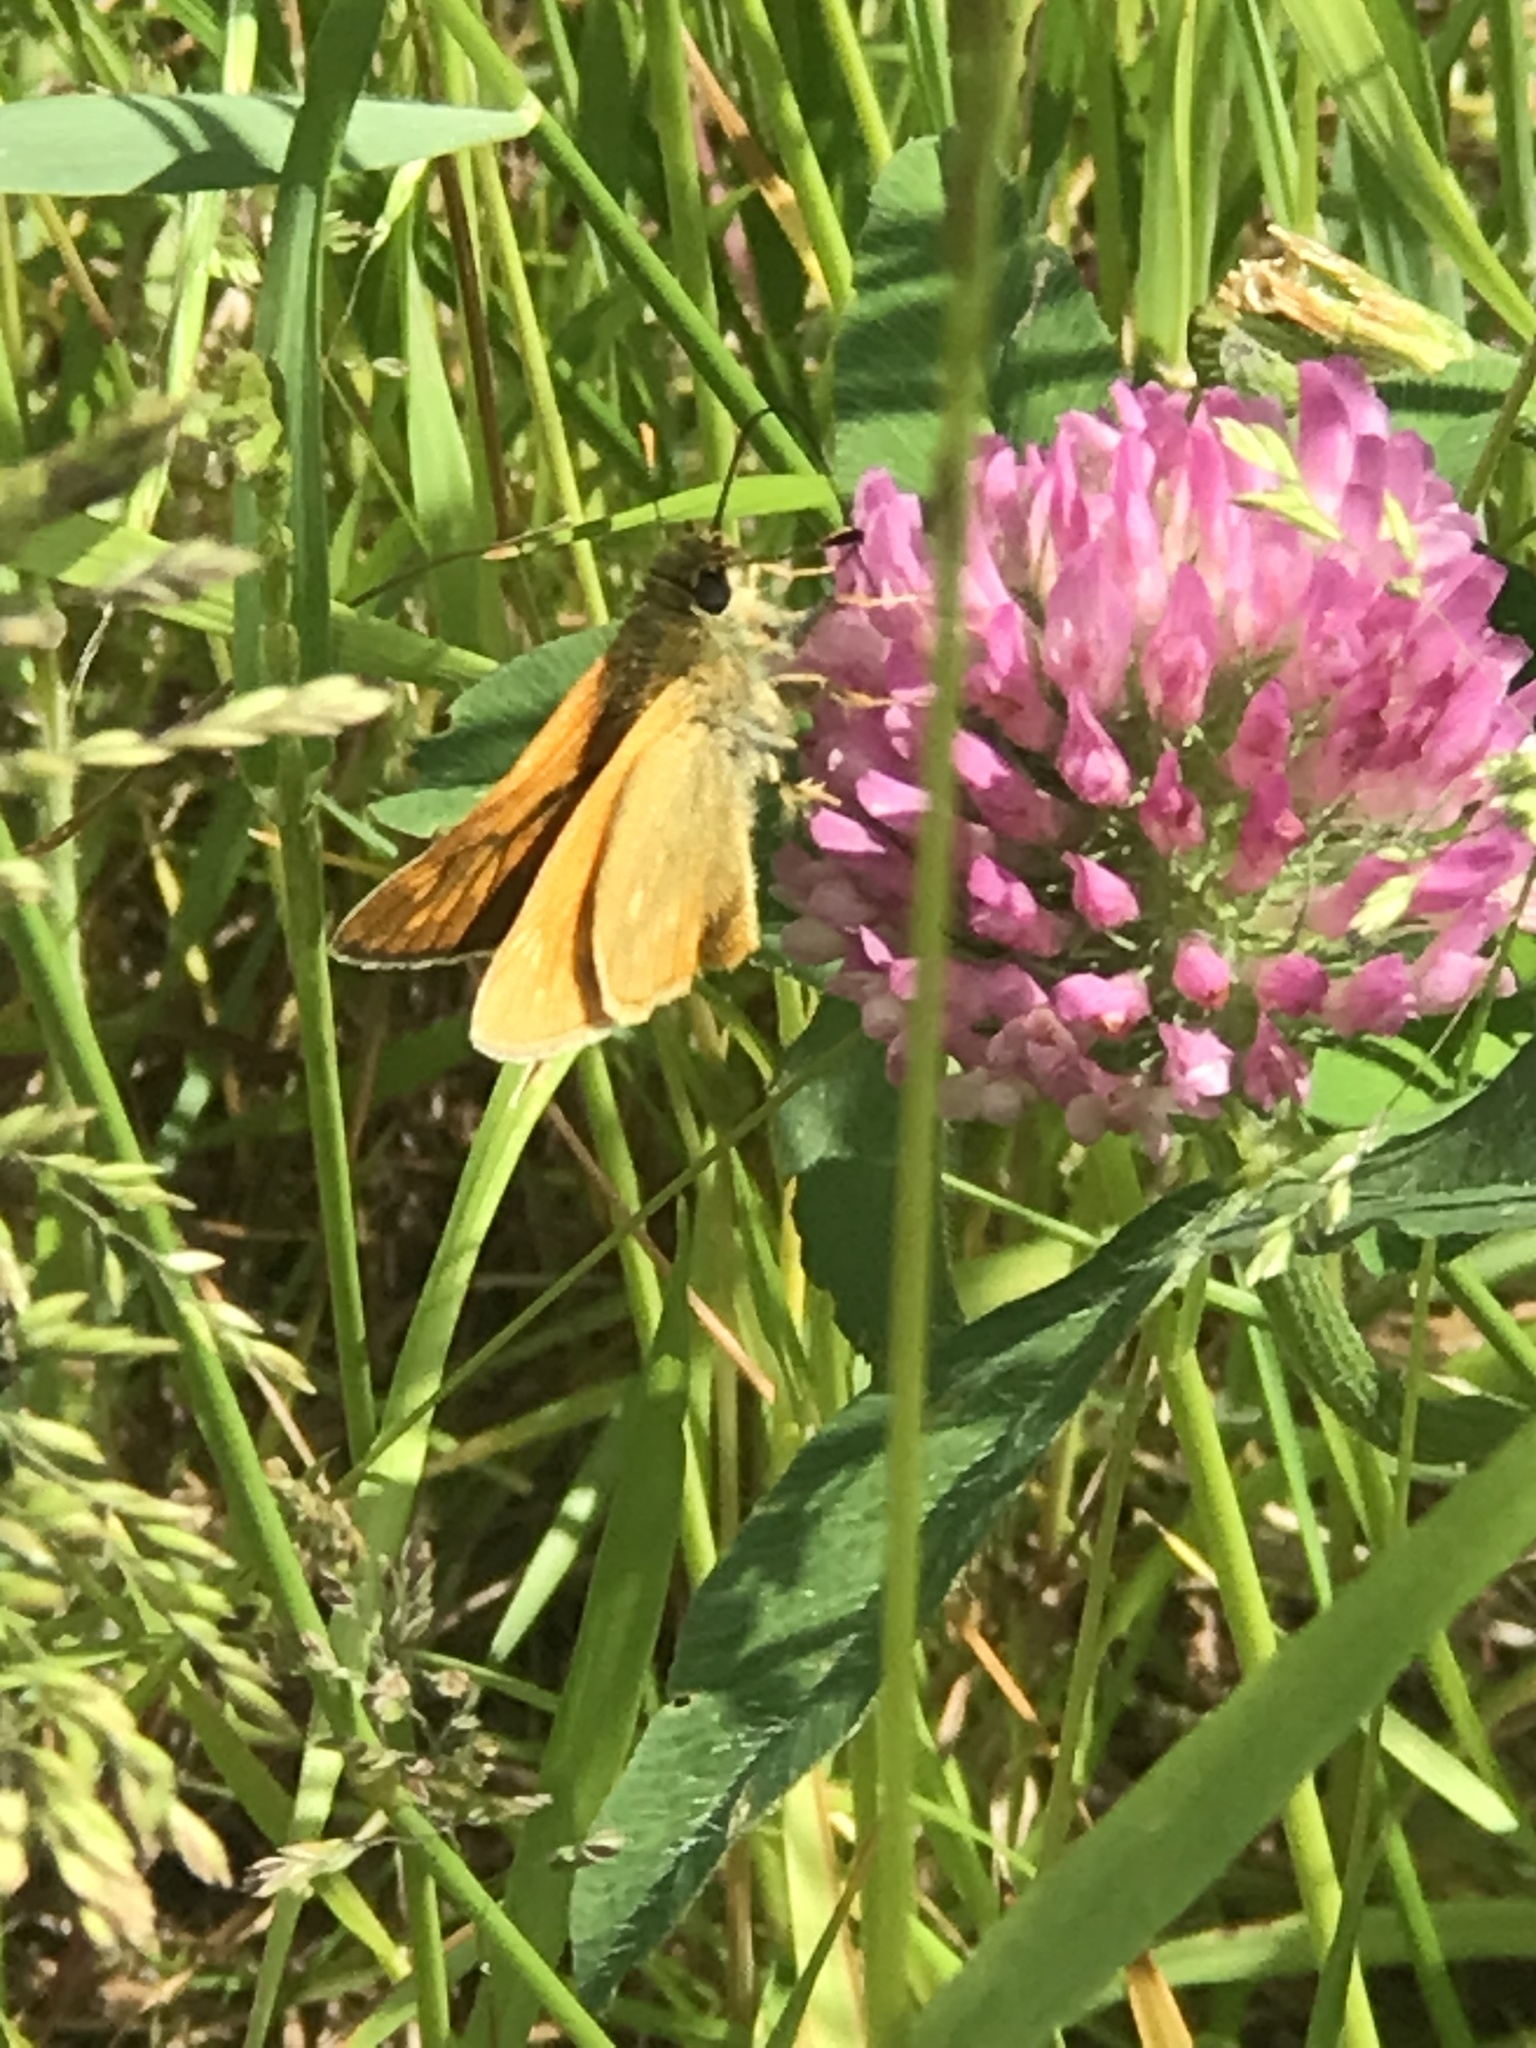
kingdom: Animalia
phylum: Arthropoda
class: Insecta
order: Lepidoptera
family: Hesperiidae
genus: Ochlodes
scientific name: Ochlodes venata
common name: Large skipper
